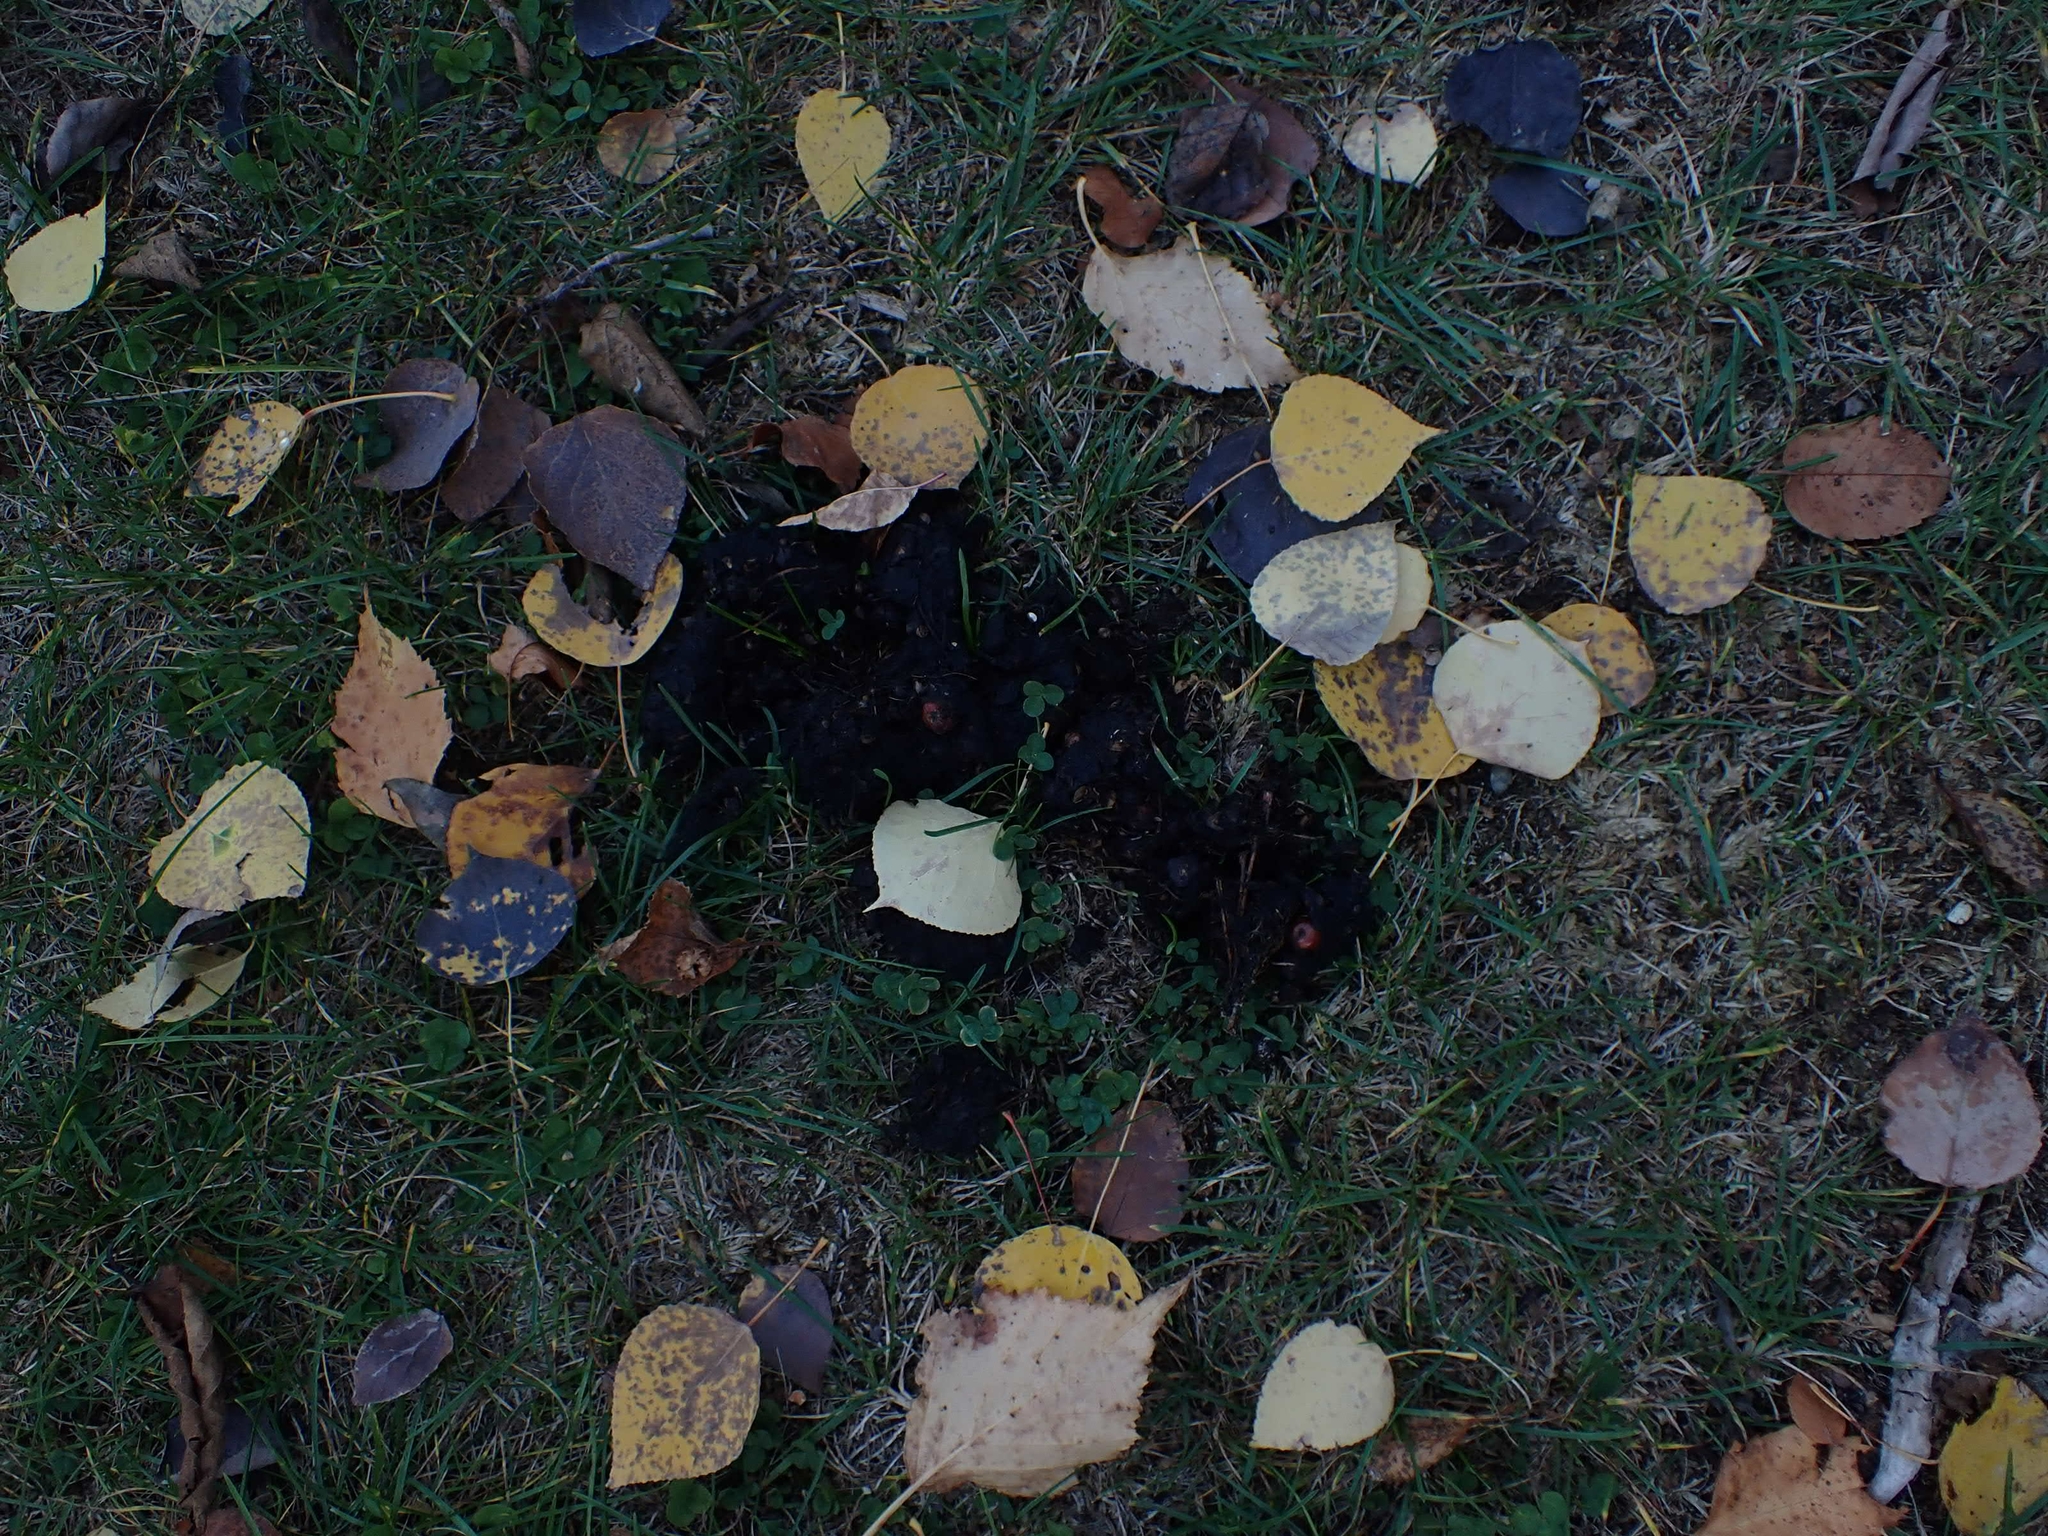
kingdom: Animalia
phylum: Chordata
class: Mammalia
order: Carnivora
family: Ursidae
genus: Ursus
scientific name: Ursus americanus
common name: American black bear
